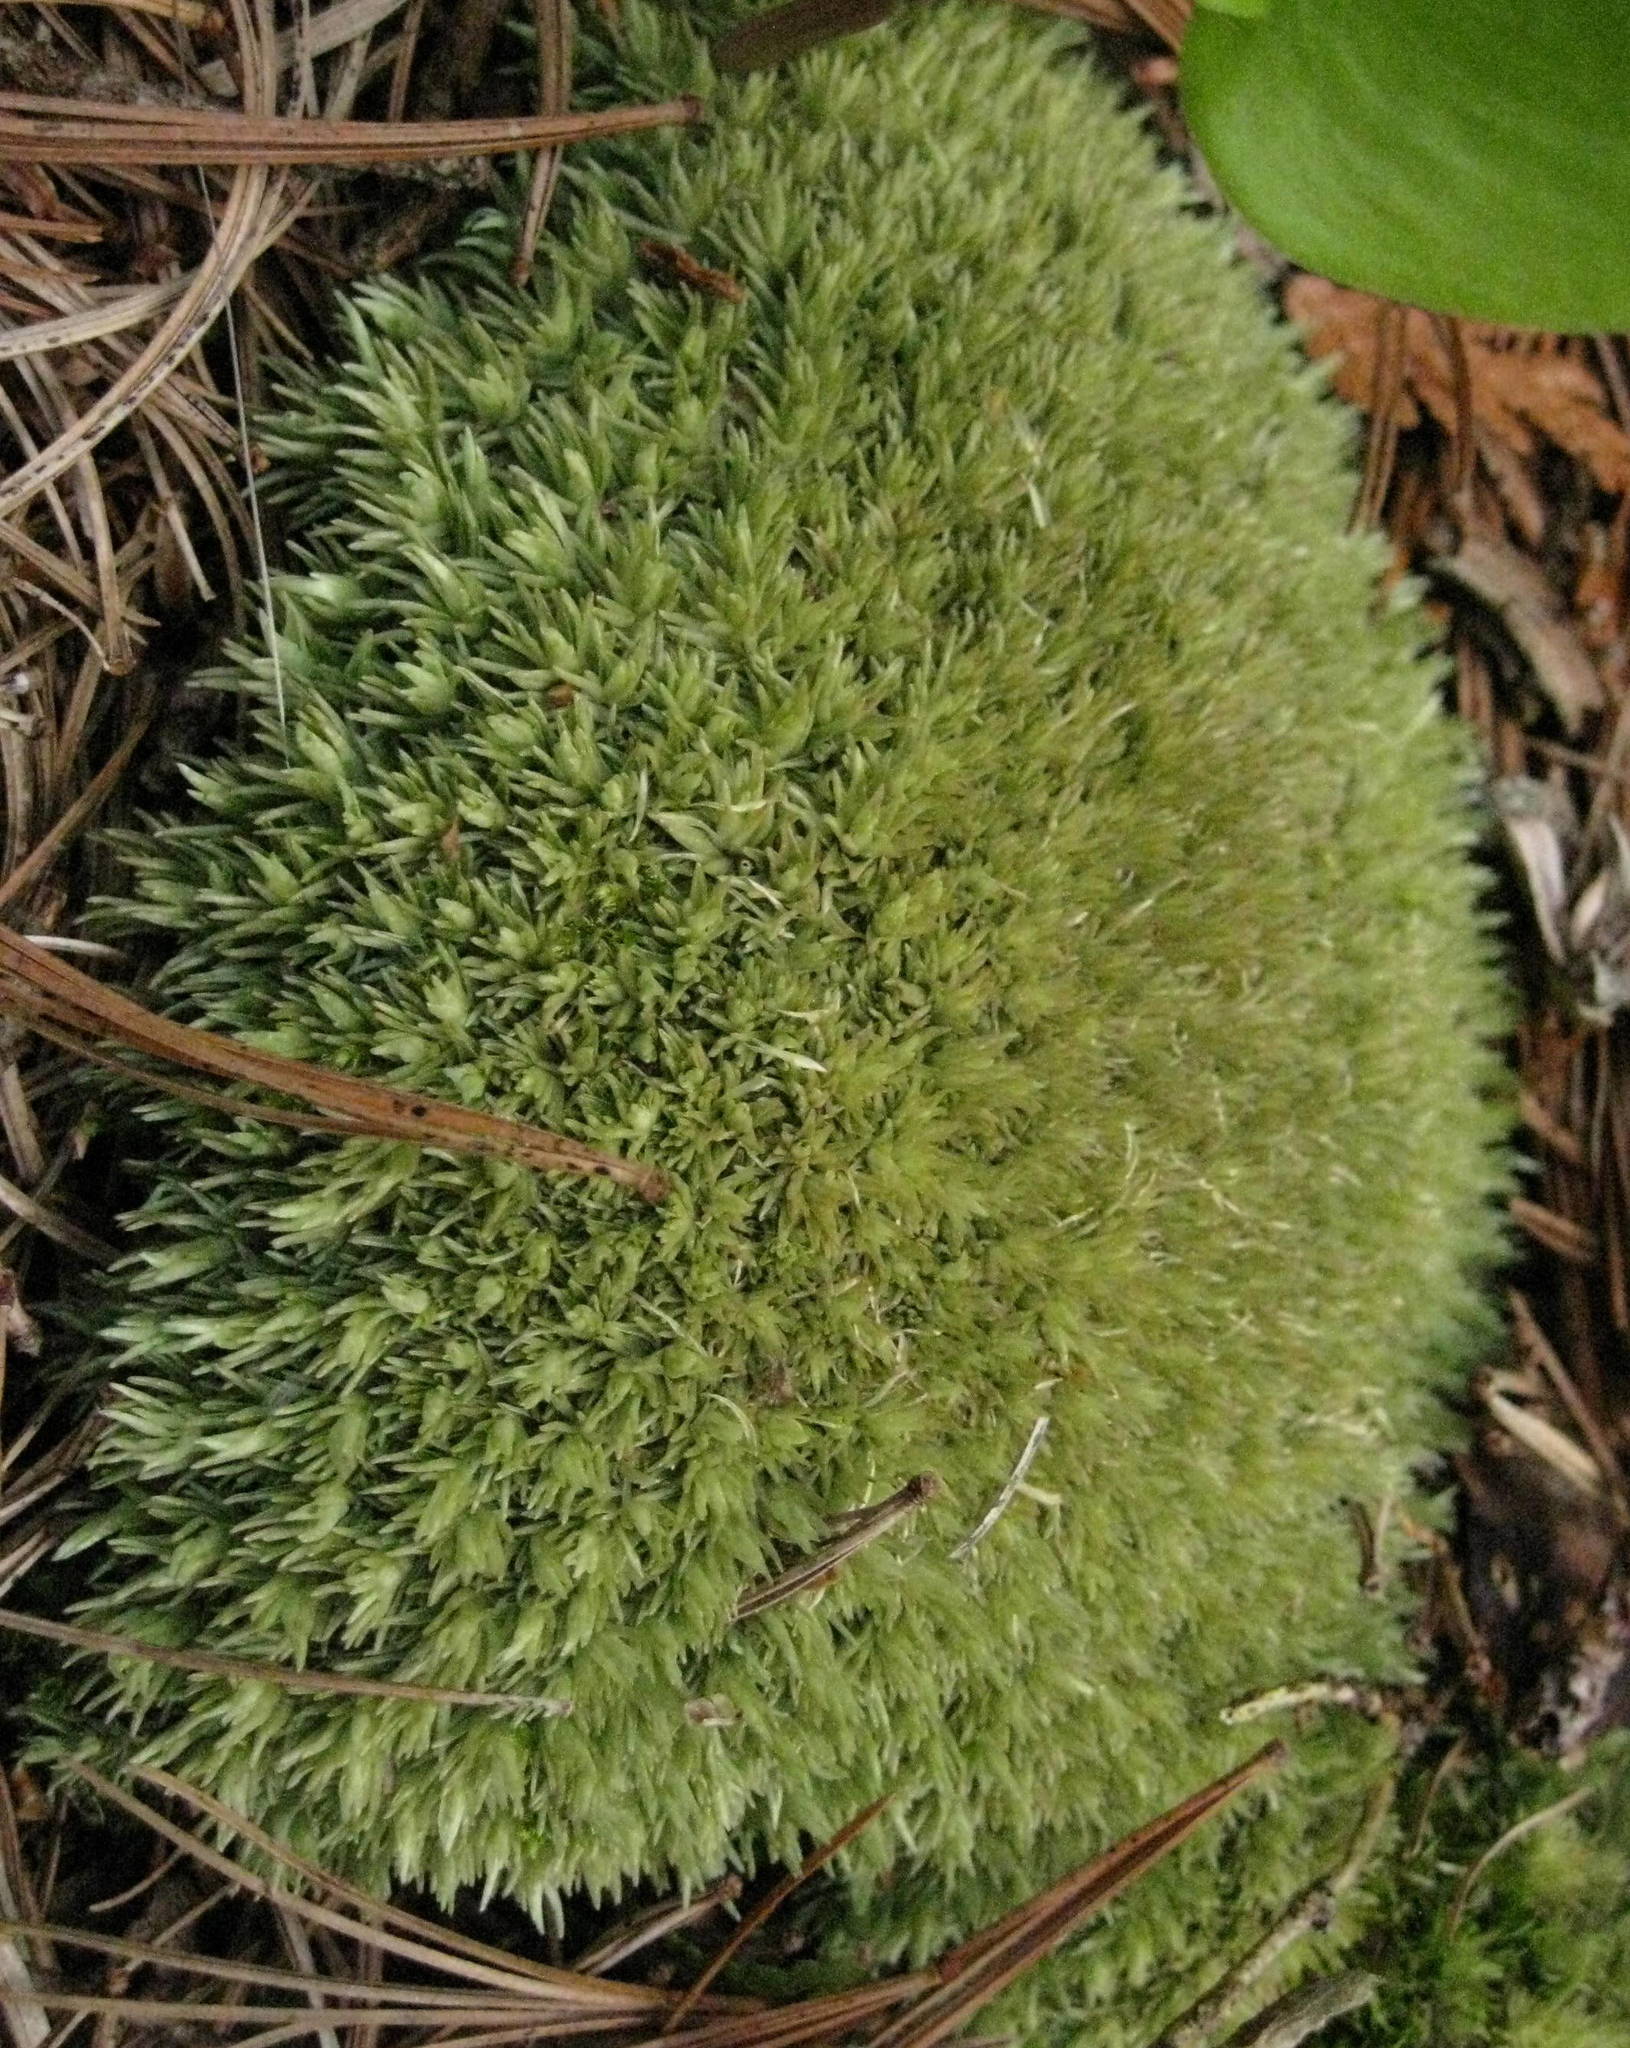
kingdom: Plantae
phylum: Bryophyta
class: Bryopsida
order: Dicranales
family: Leucobryaceae
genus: Leucobryum
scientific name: Leucobryum glaucum
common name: Large white-moss
